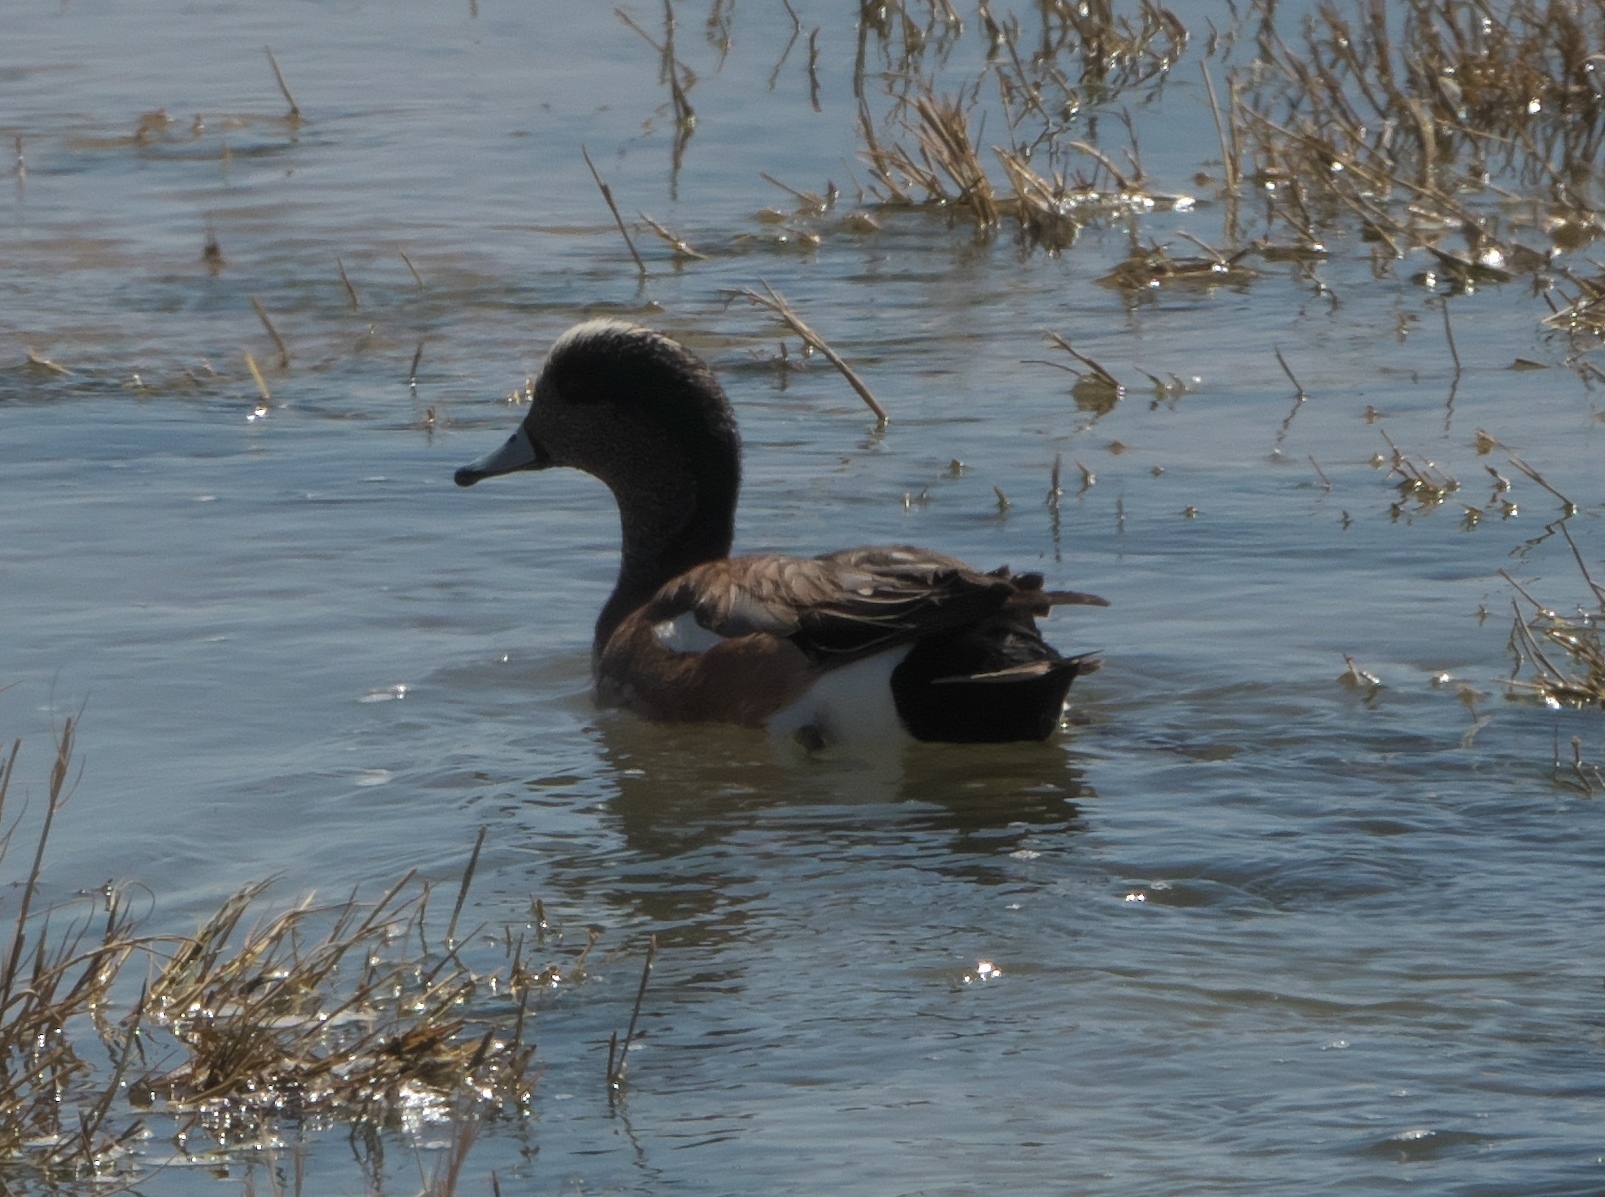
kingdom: Animalia
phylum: Chordata
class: Aves
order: Anseriformes
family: Anatidae
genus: Mareca
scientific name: Mareca americana
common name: American wigeon
